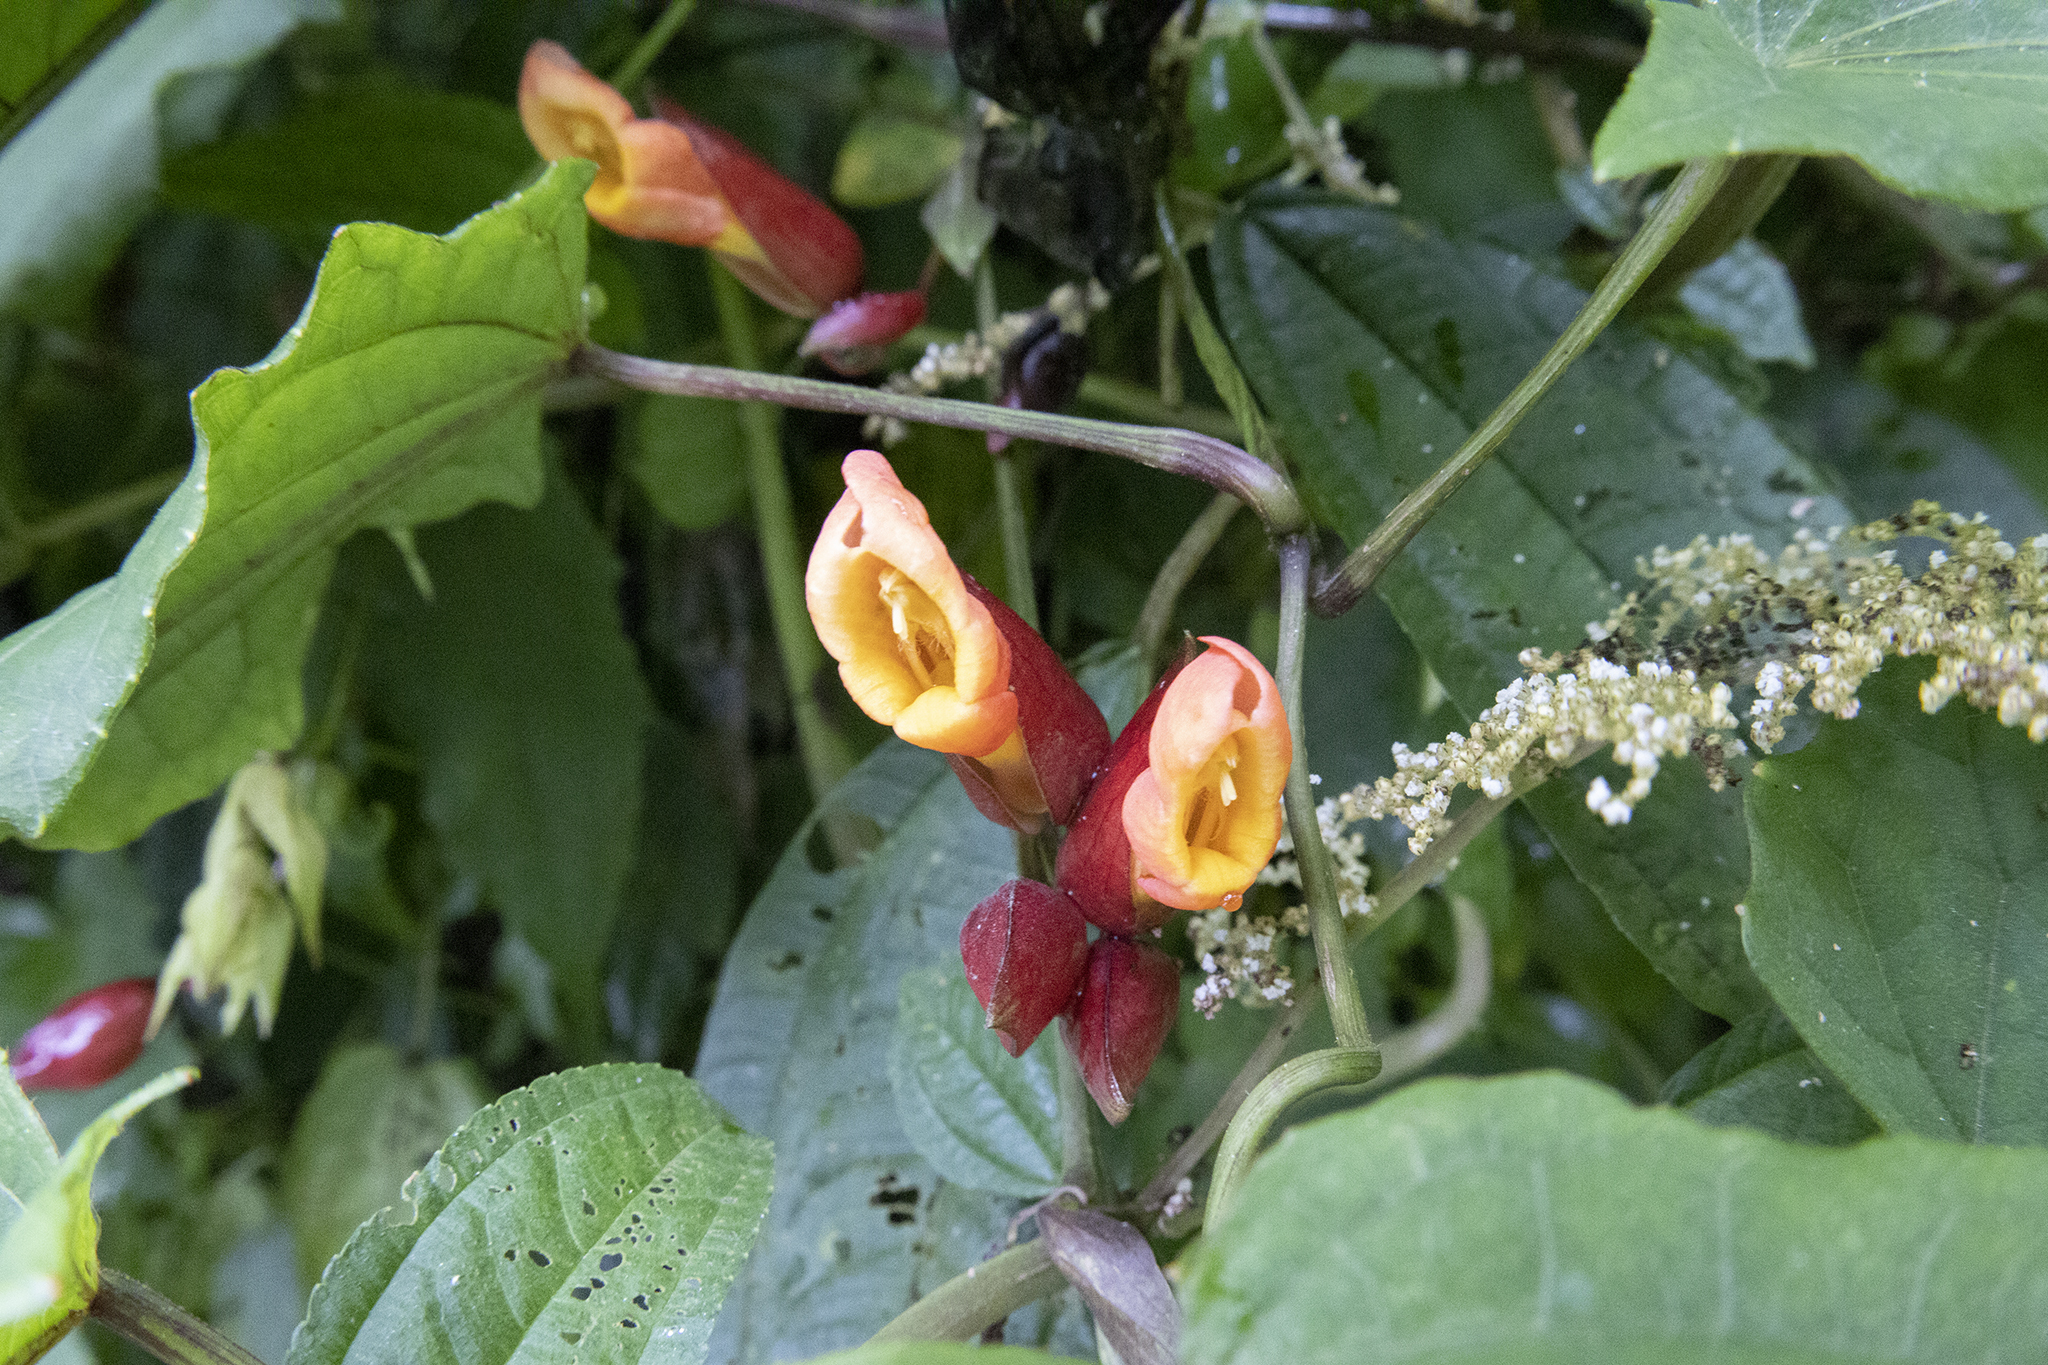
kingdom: Plantae
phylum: Tracheophyta
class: Magnoliopsida
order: Lamiales
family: Acanthaceae
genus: Thunbergia
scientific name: Thunbergia coccinea
